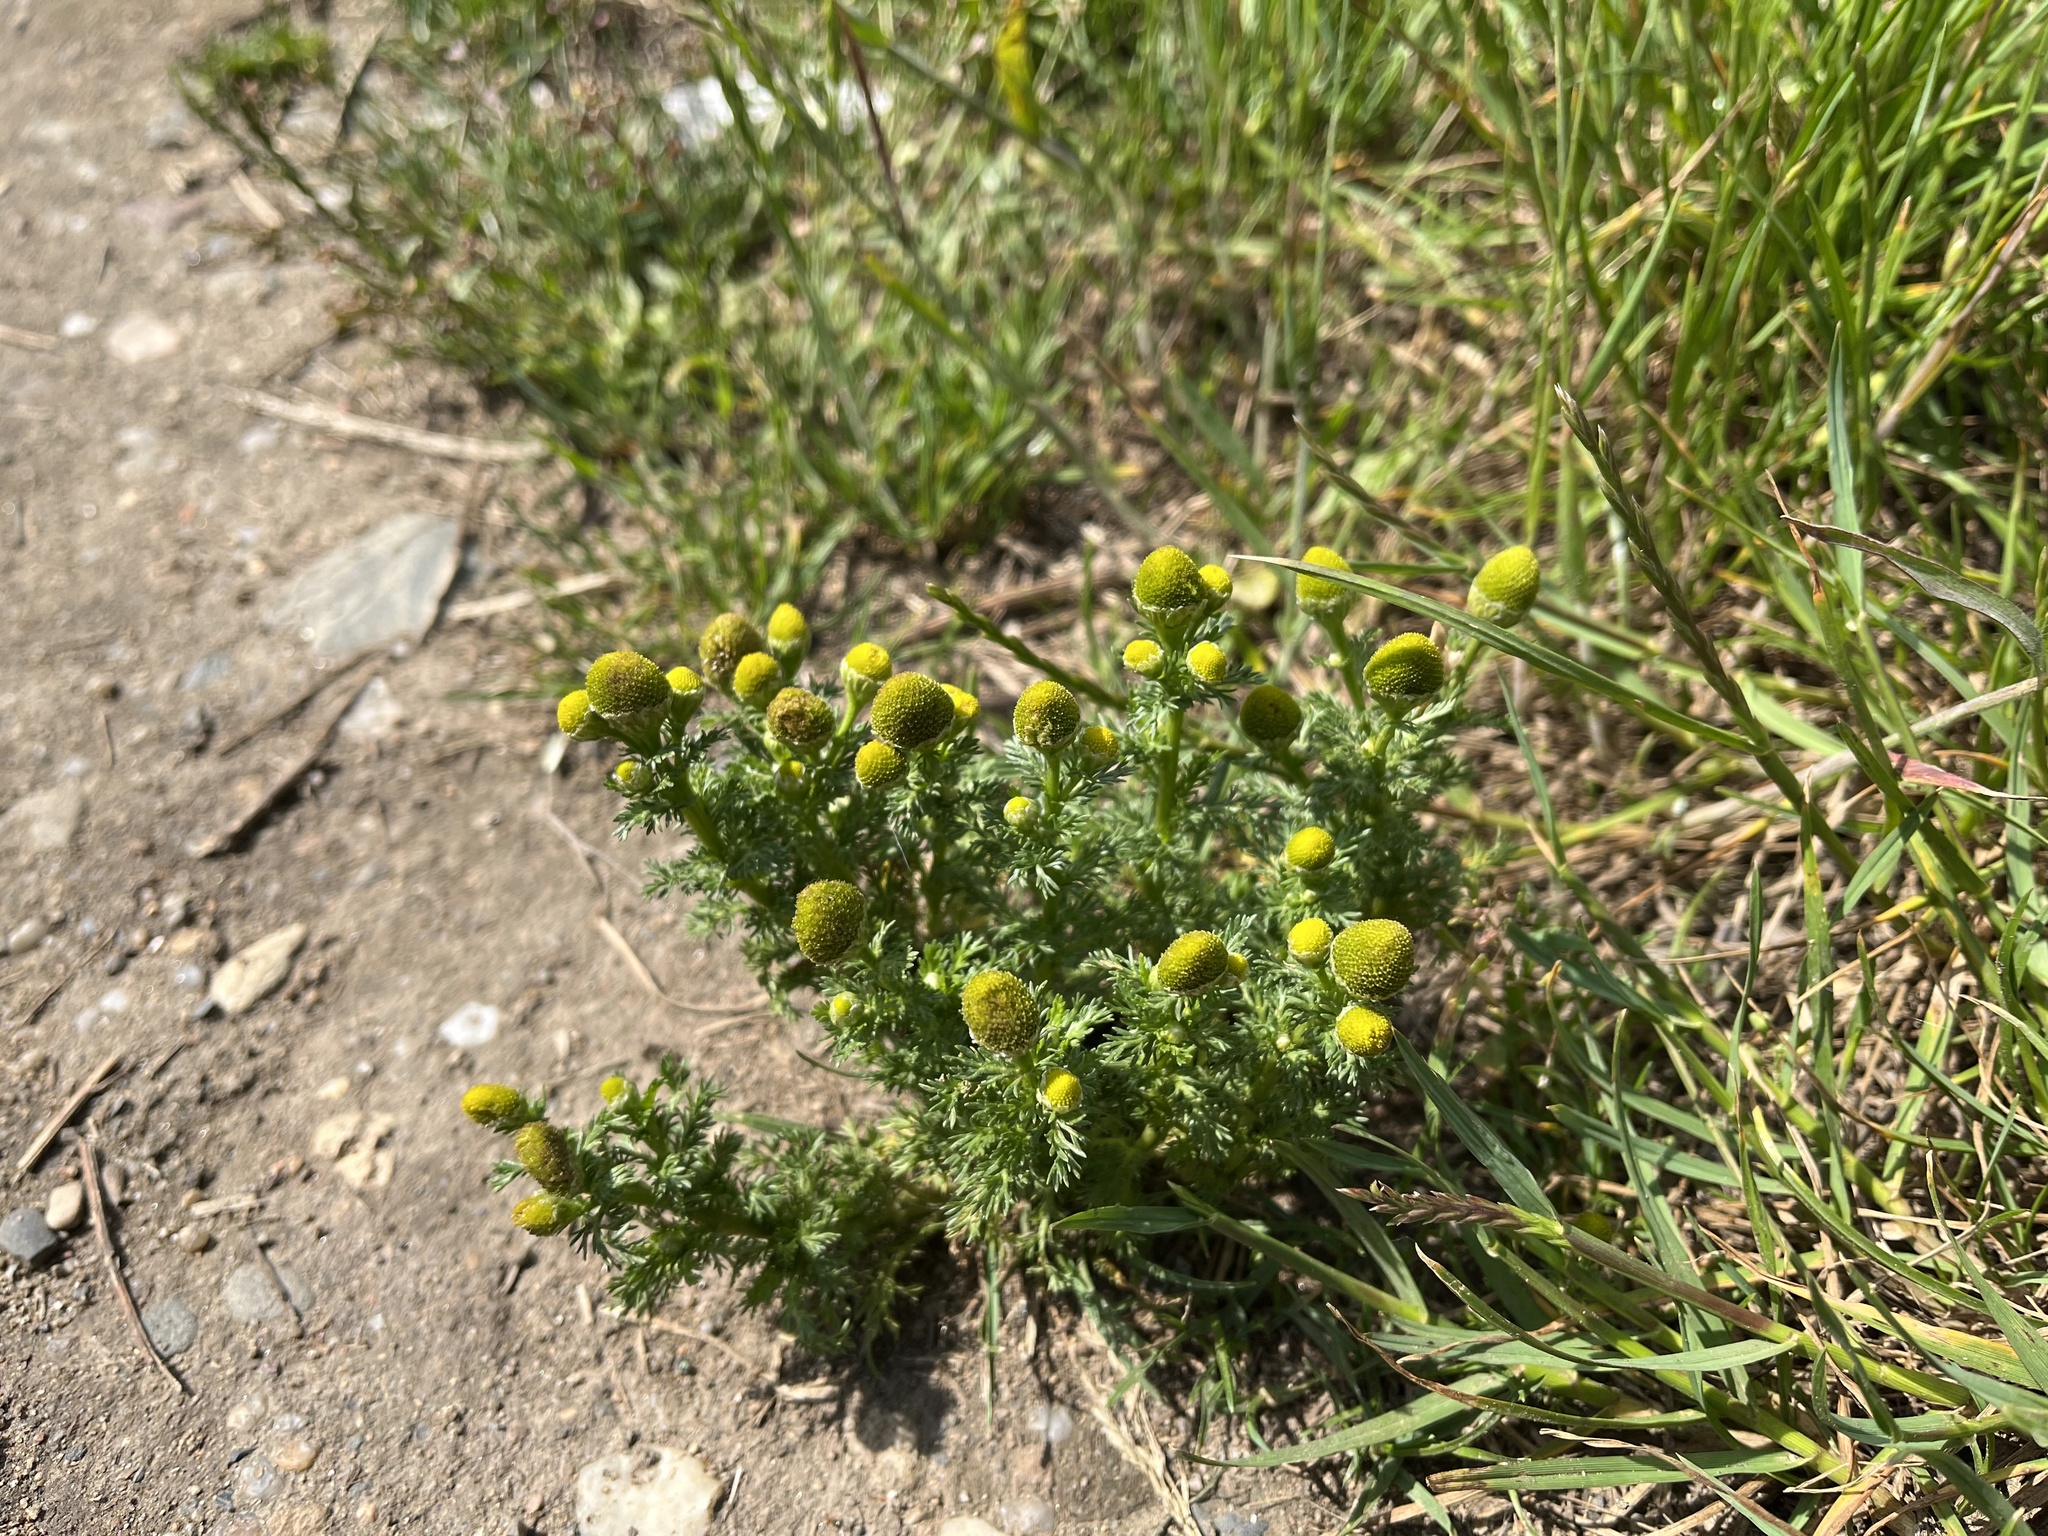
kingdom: Plantae
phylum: Tracheophyta
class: Magnoliopsida
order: Asterales
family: Asteraceae
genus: Matricaria
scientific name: Matricaria discoidea
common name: Disc mayweed
